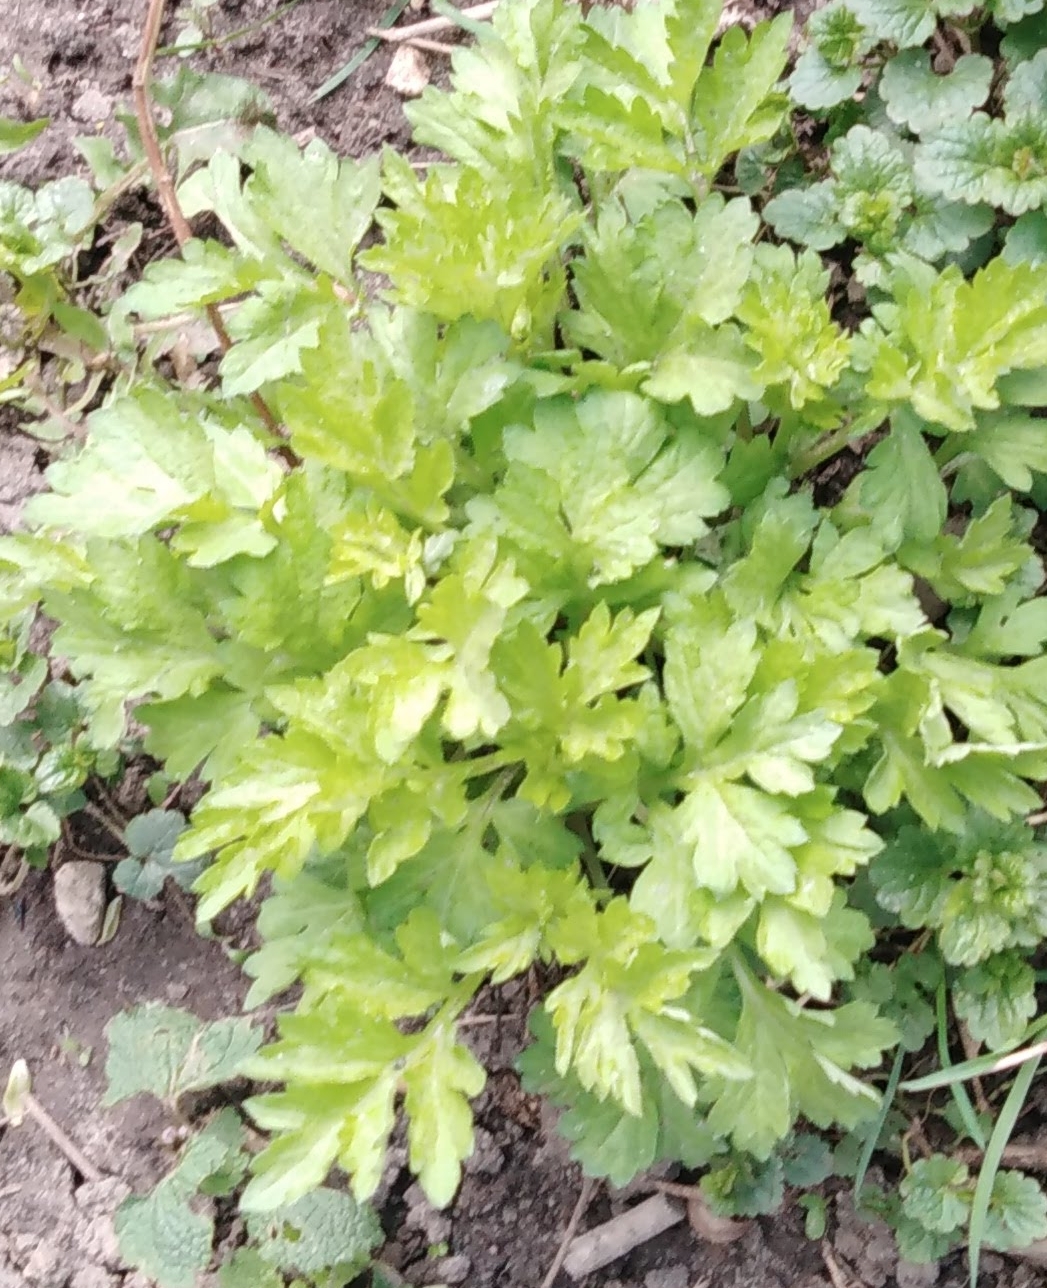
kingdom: Plantae
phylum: Tracheophyta
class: Magnoliopsida
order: Asterales
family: Asteraceae
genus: Artemisia
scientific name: Artemisia vulgaris
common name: Mugwort
